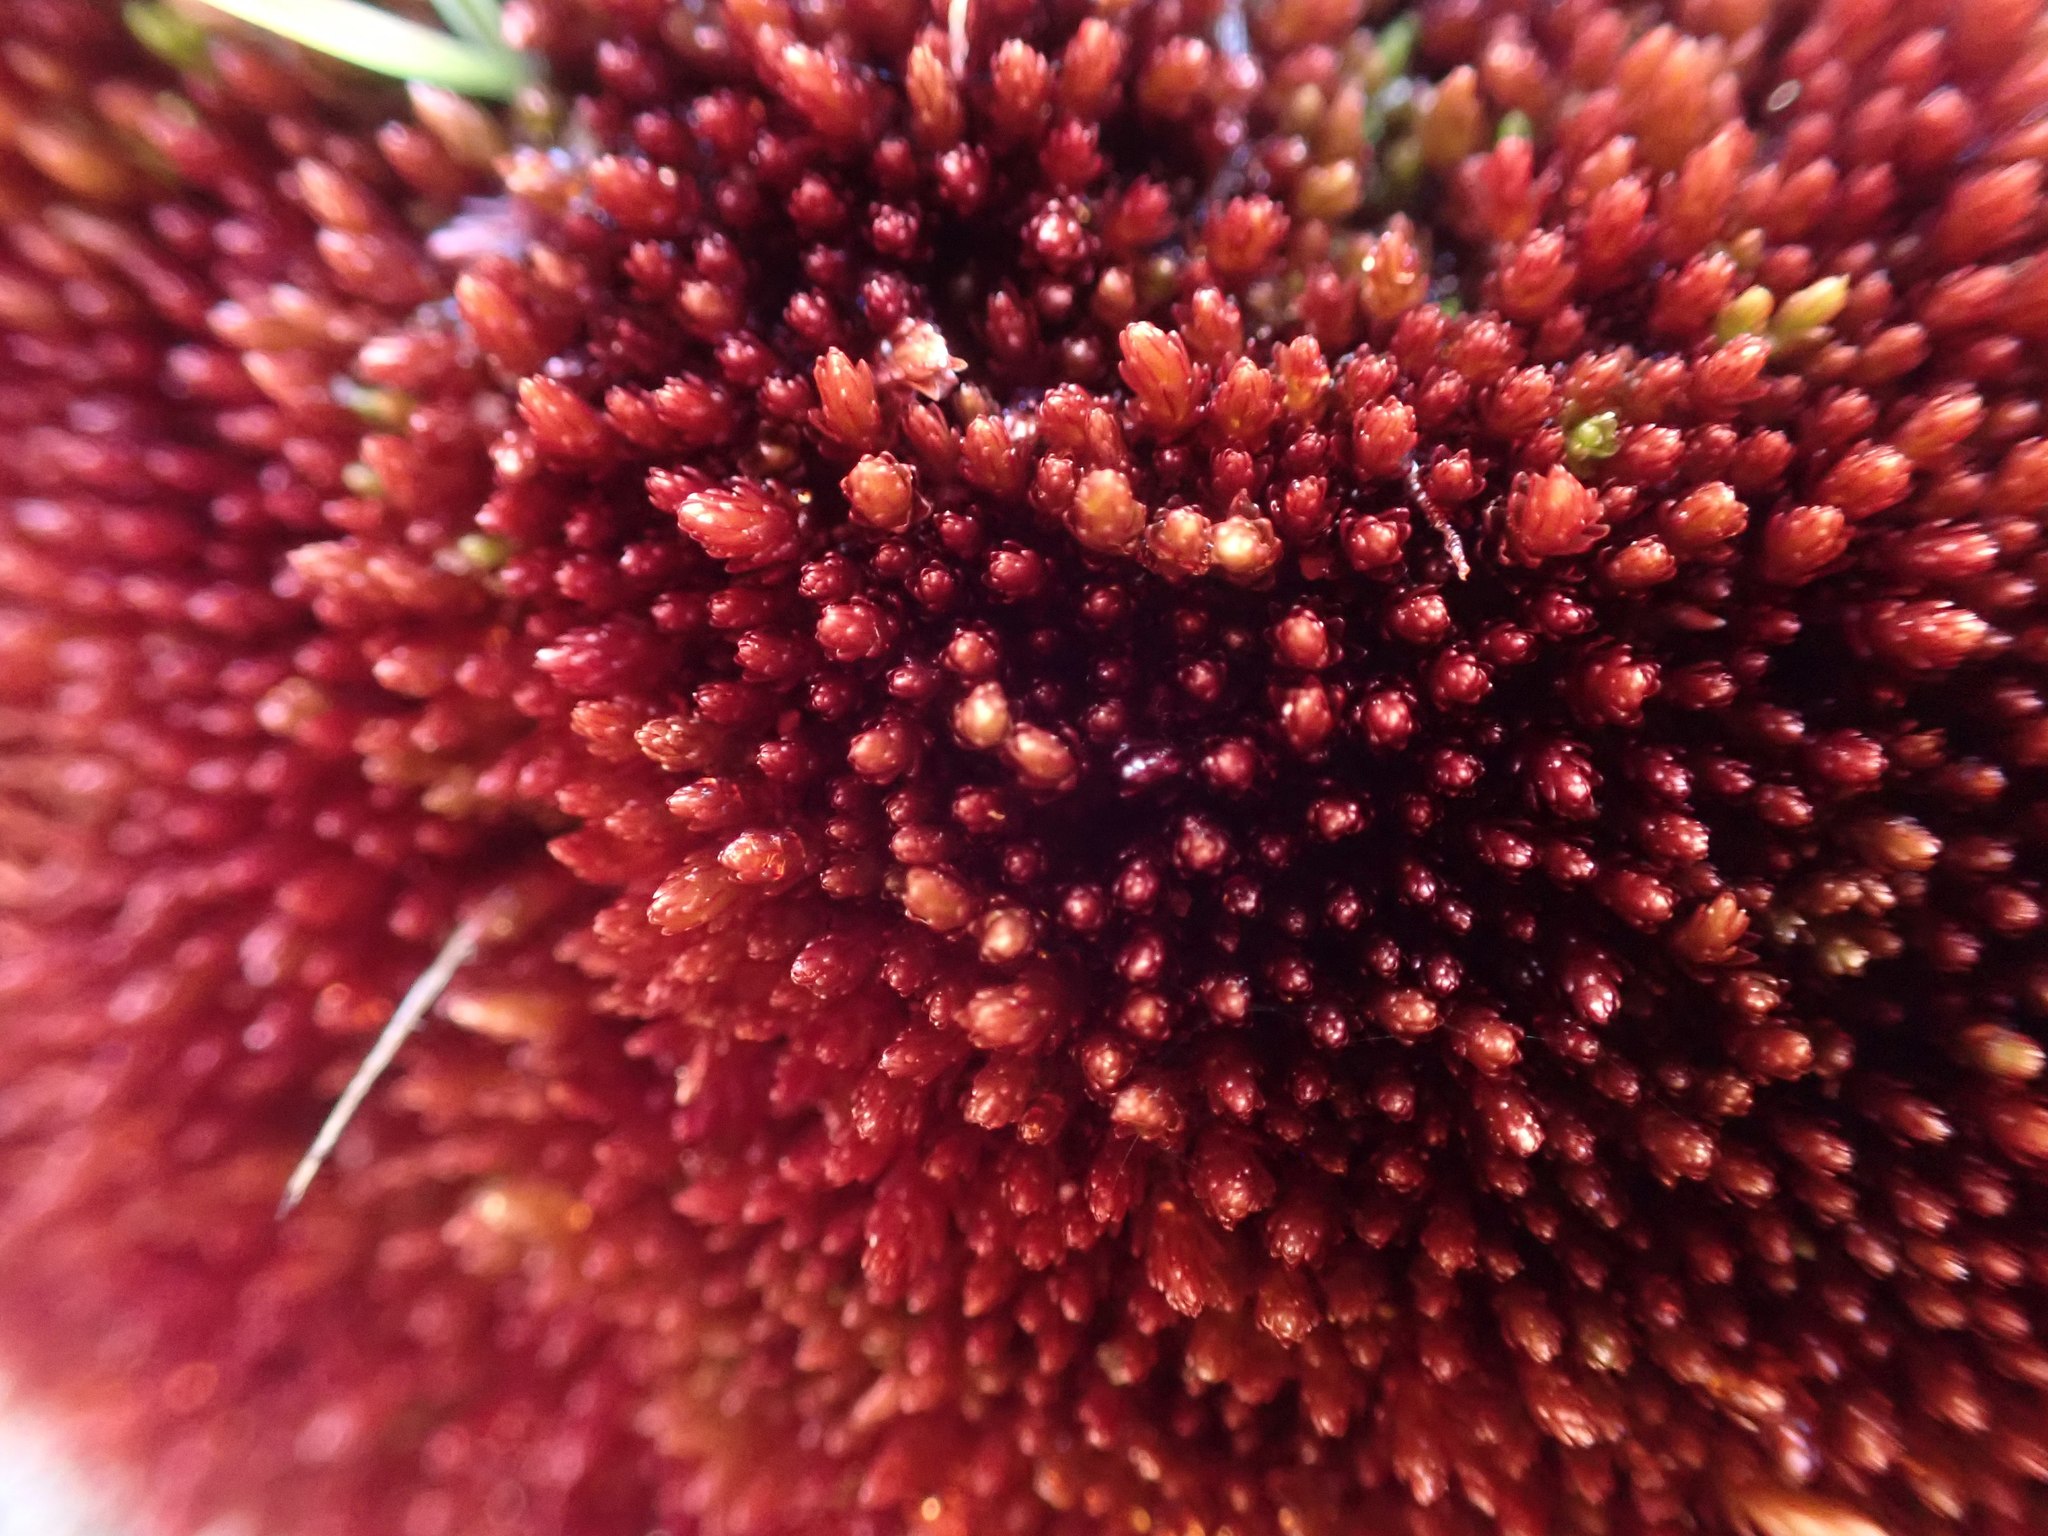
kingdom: Plantae
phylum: Bryophyta
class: Bryopsida
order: Bryales
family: Bryaceae
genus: Imbribryum
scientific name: Imbribryum miniatum
